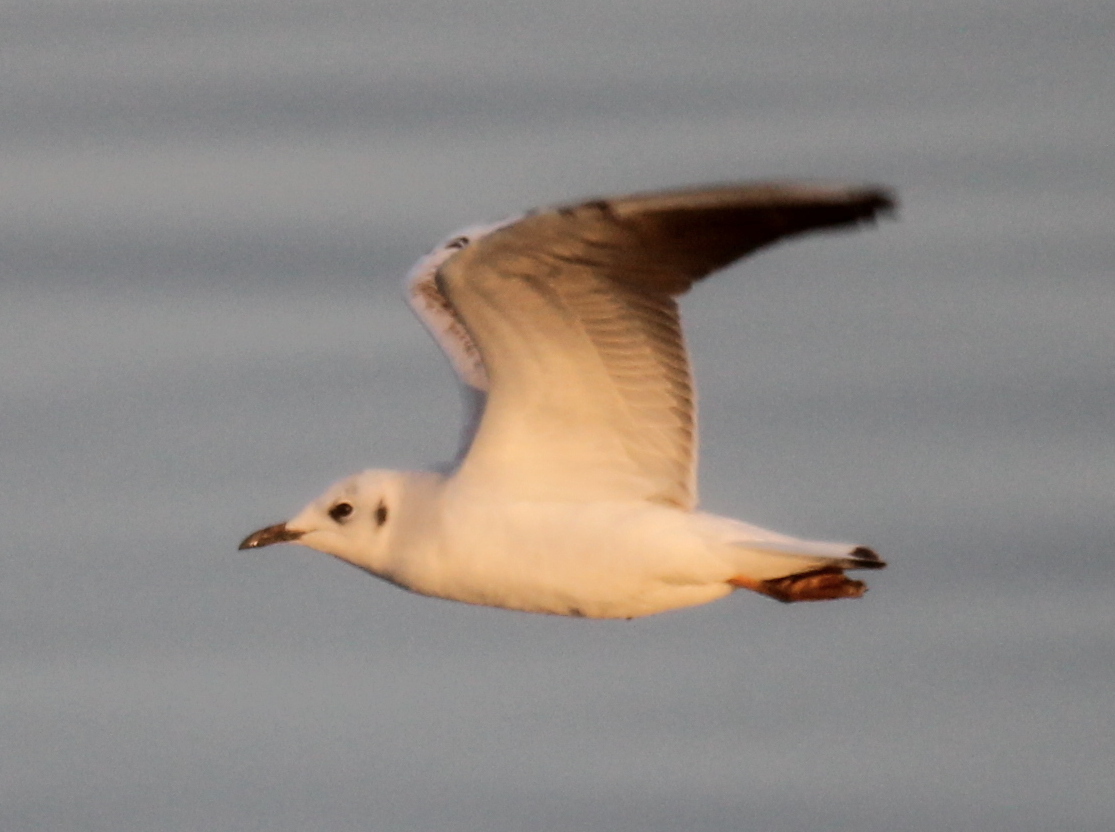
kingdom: Animalia
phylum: Chordata
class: Aves
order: Charadriiformes
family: Laridae
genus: Chroicocephalus
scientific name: Chroicocephalus ridibundus
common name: Black-headed gull
